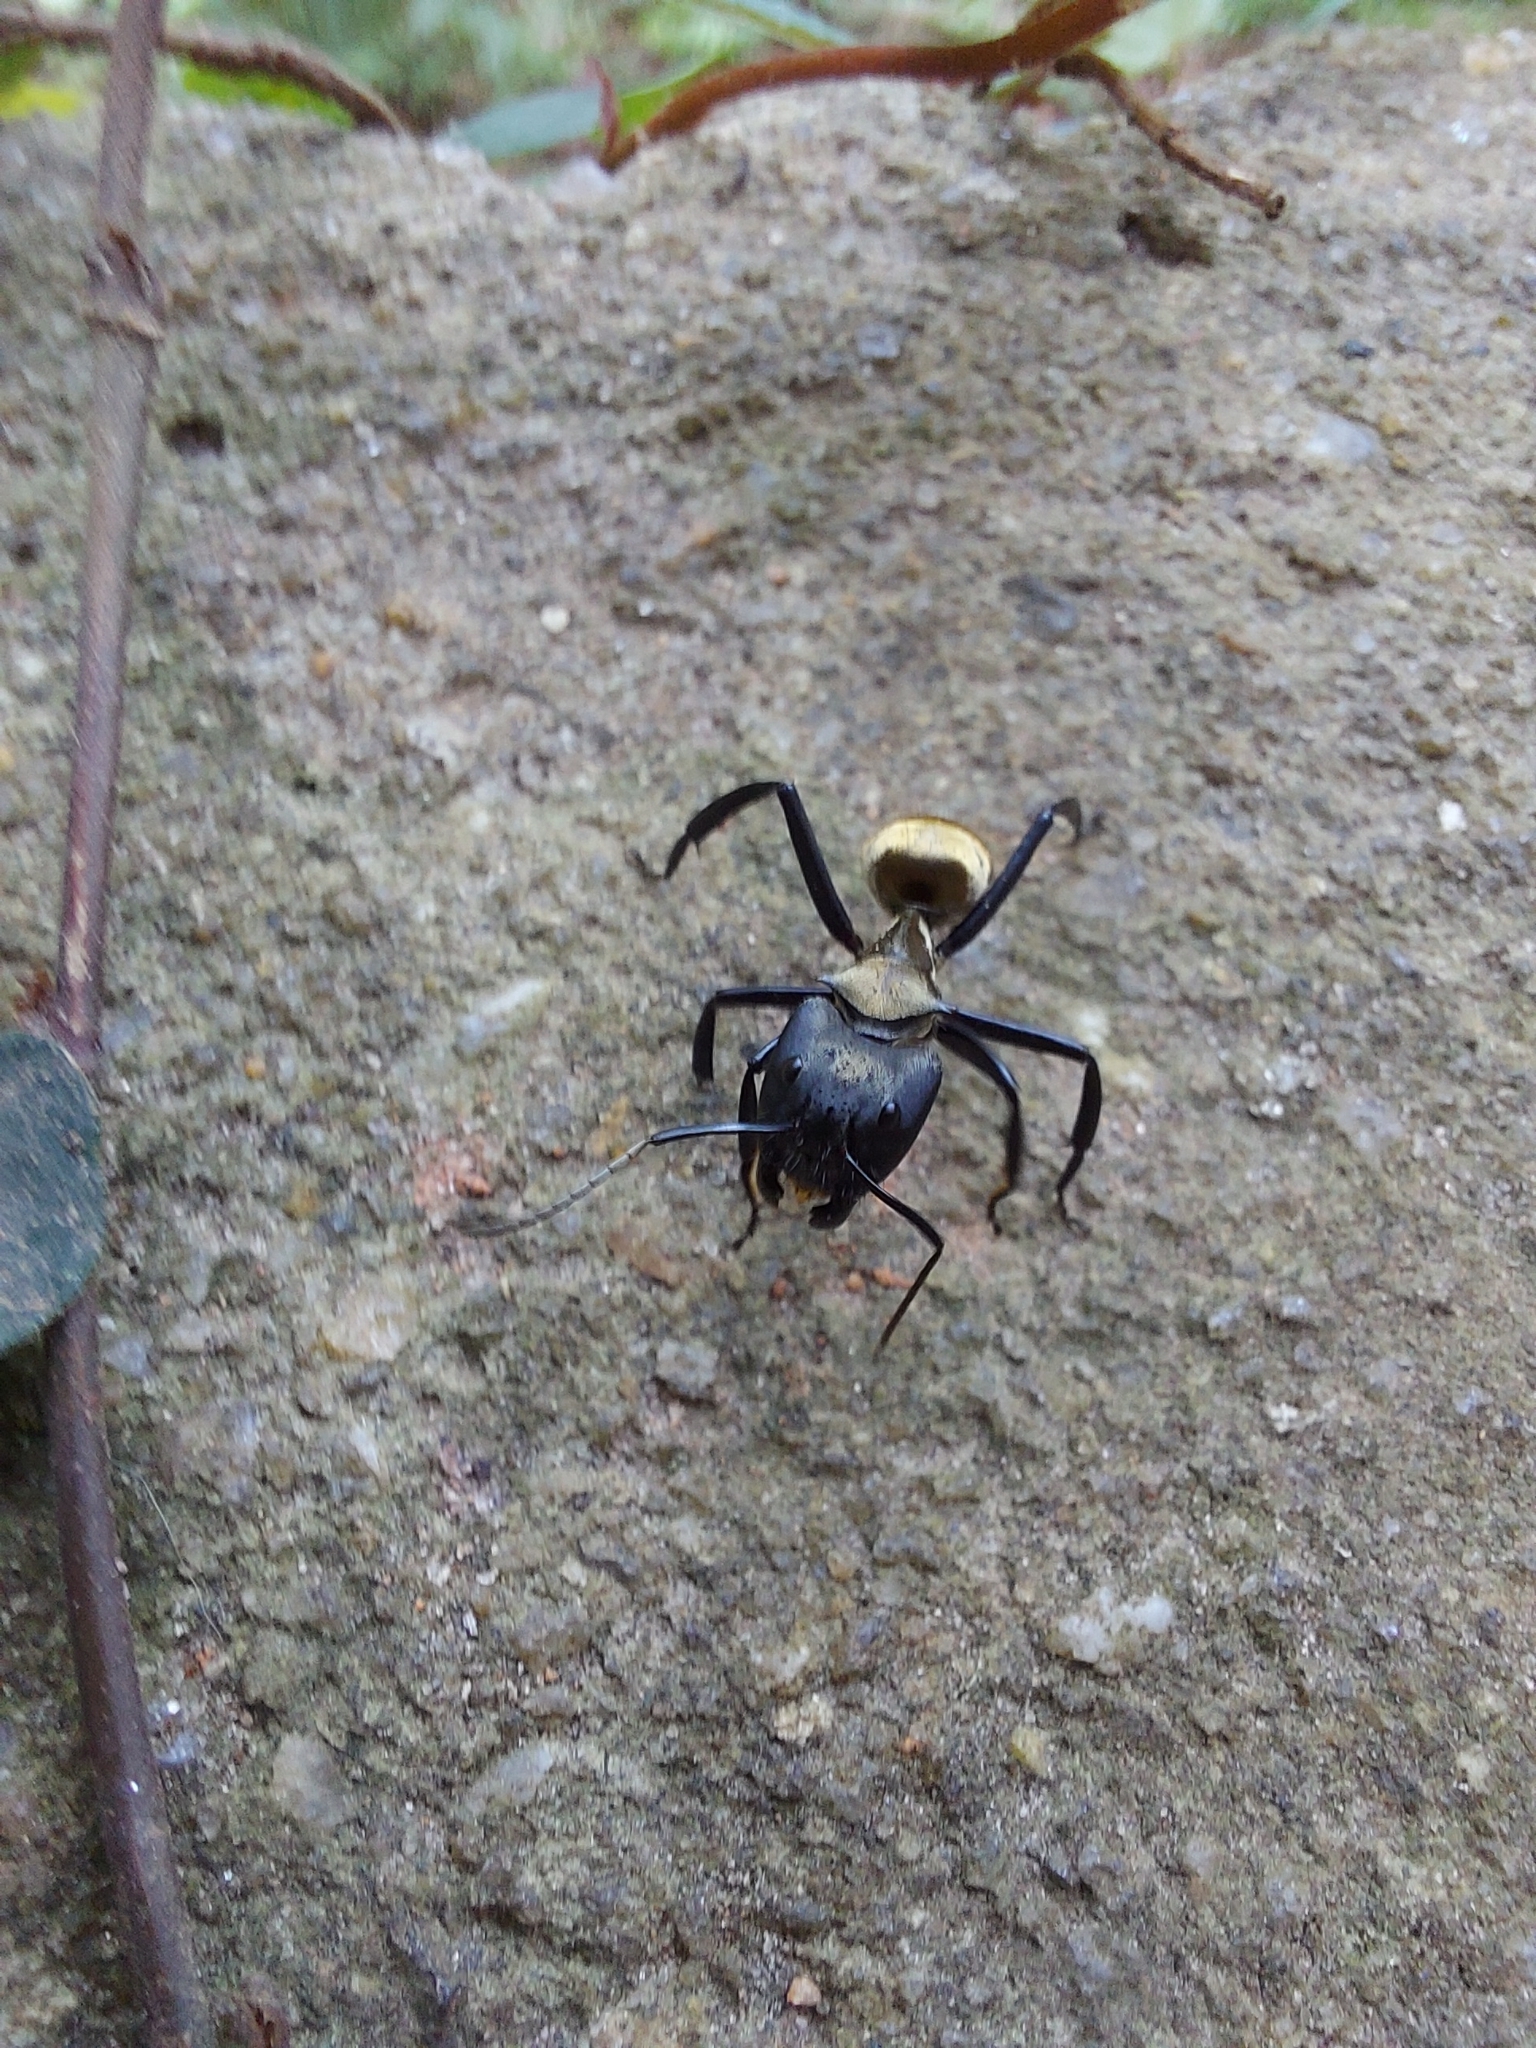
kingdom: Animalia
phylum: Arthropoda
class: Insecta
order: Hymenoptera
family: Formicidae
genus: Camponotus
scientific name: Camponotus sericeiventris
